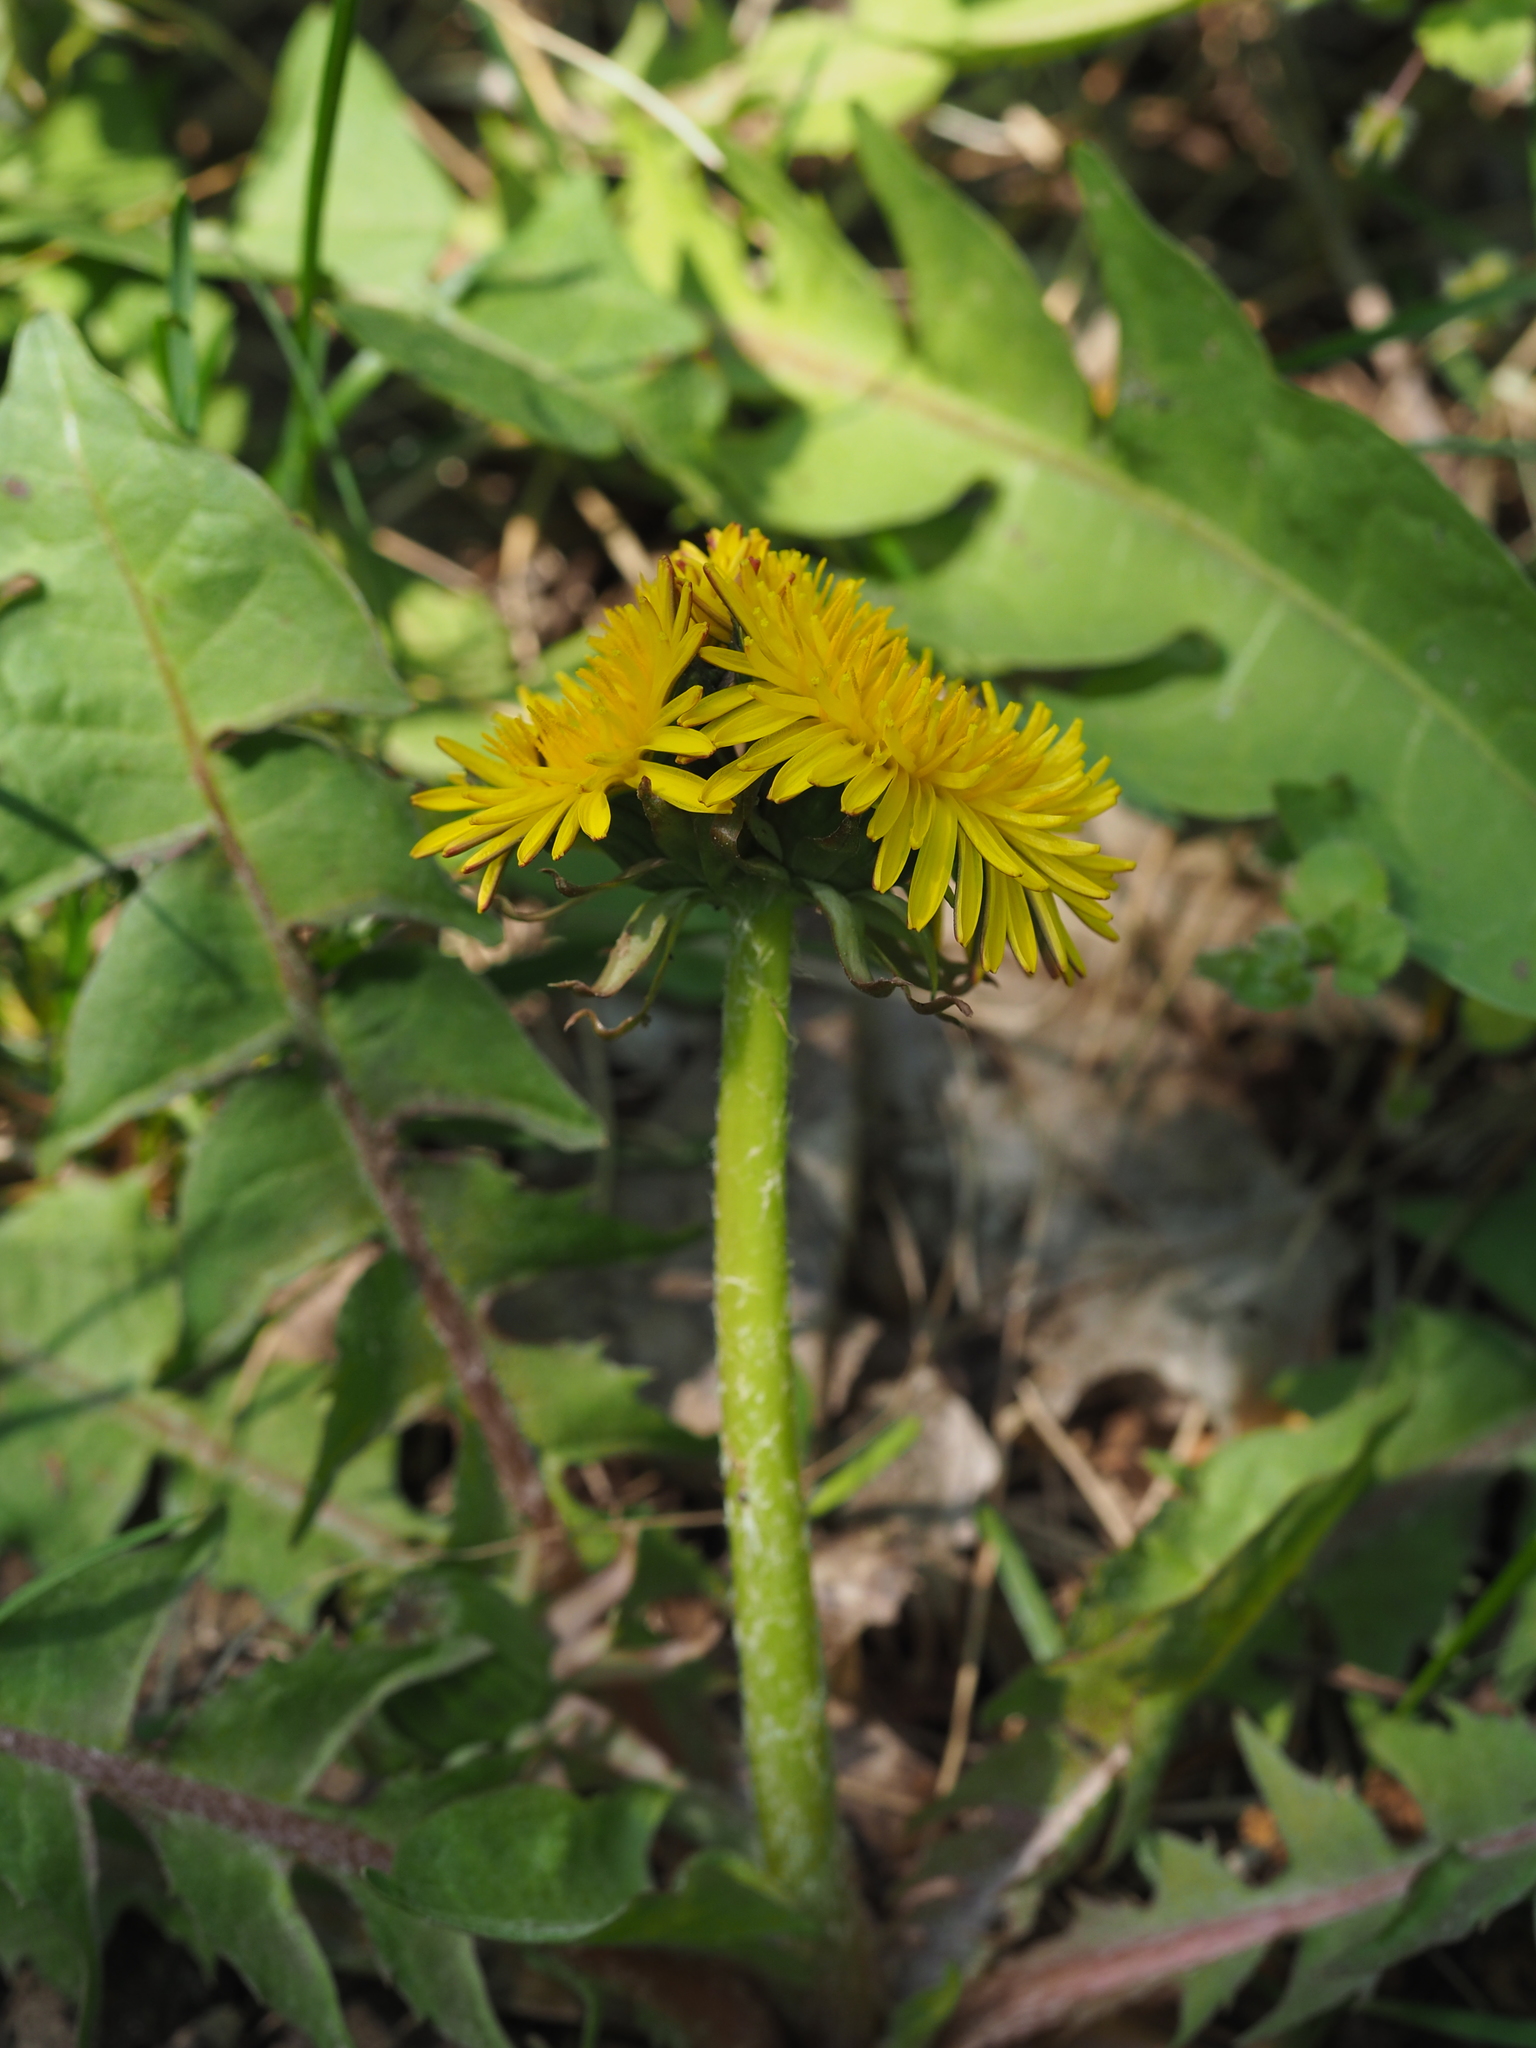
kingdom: Plantae
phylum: Tracheophyta
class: Magnoliopsida
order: Asterales
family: Asteraceae
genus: Taraxacum
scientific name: Taraxacum officinale
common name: Common dandelion
